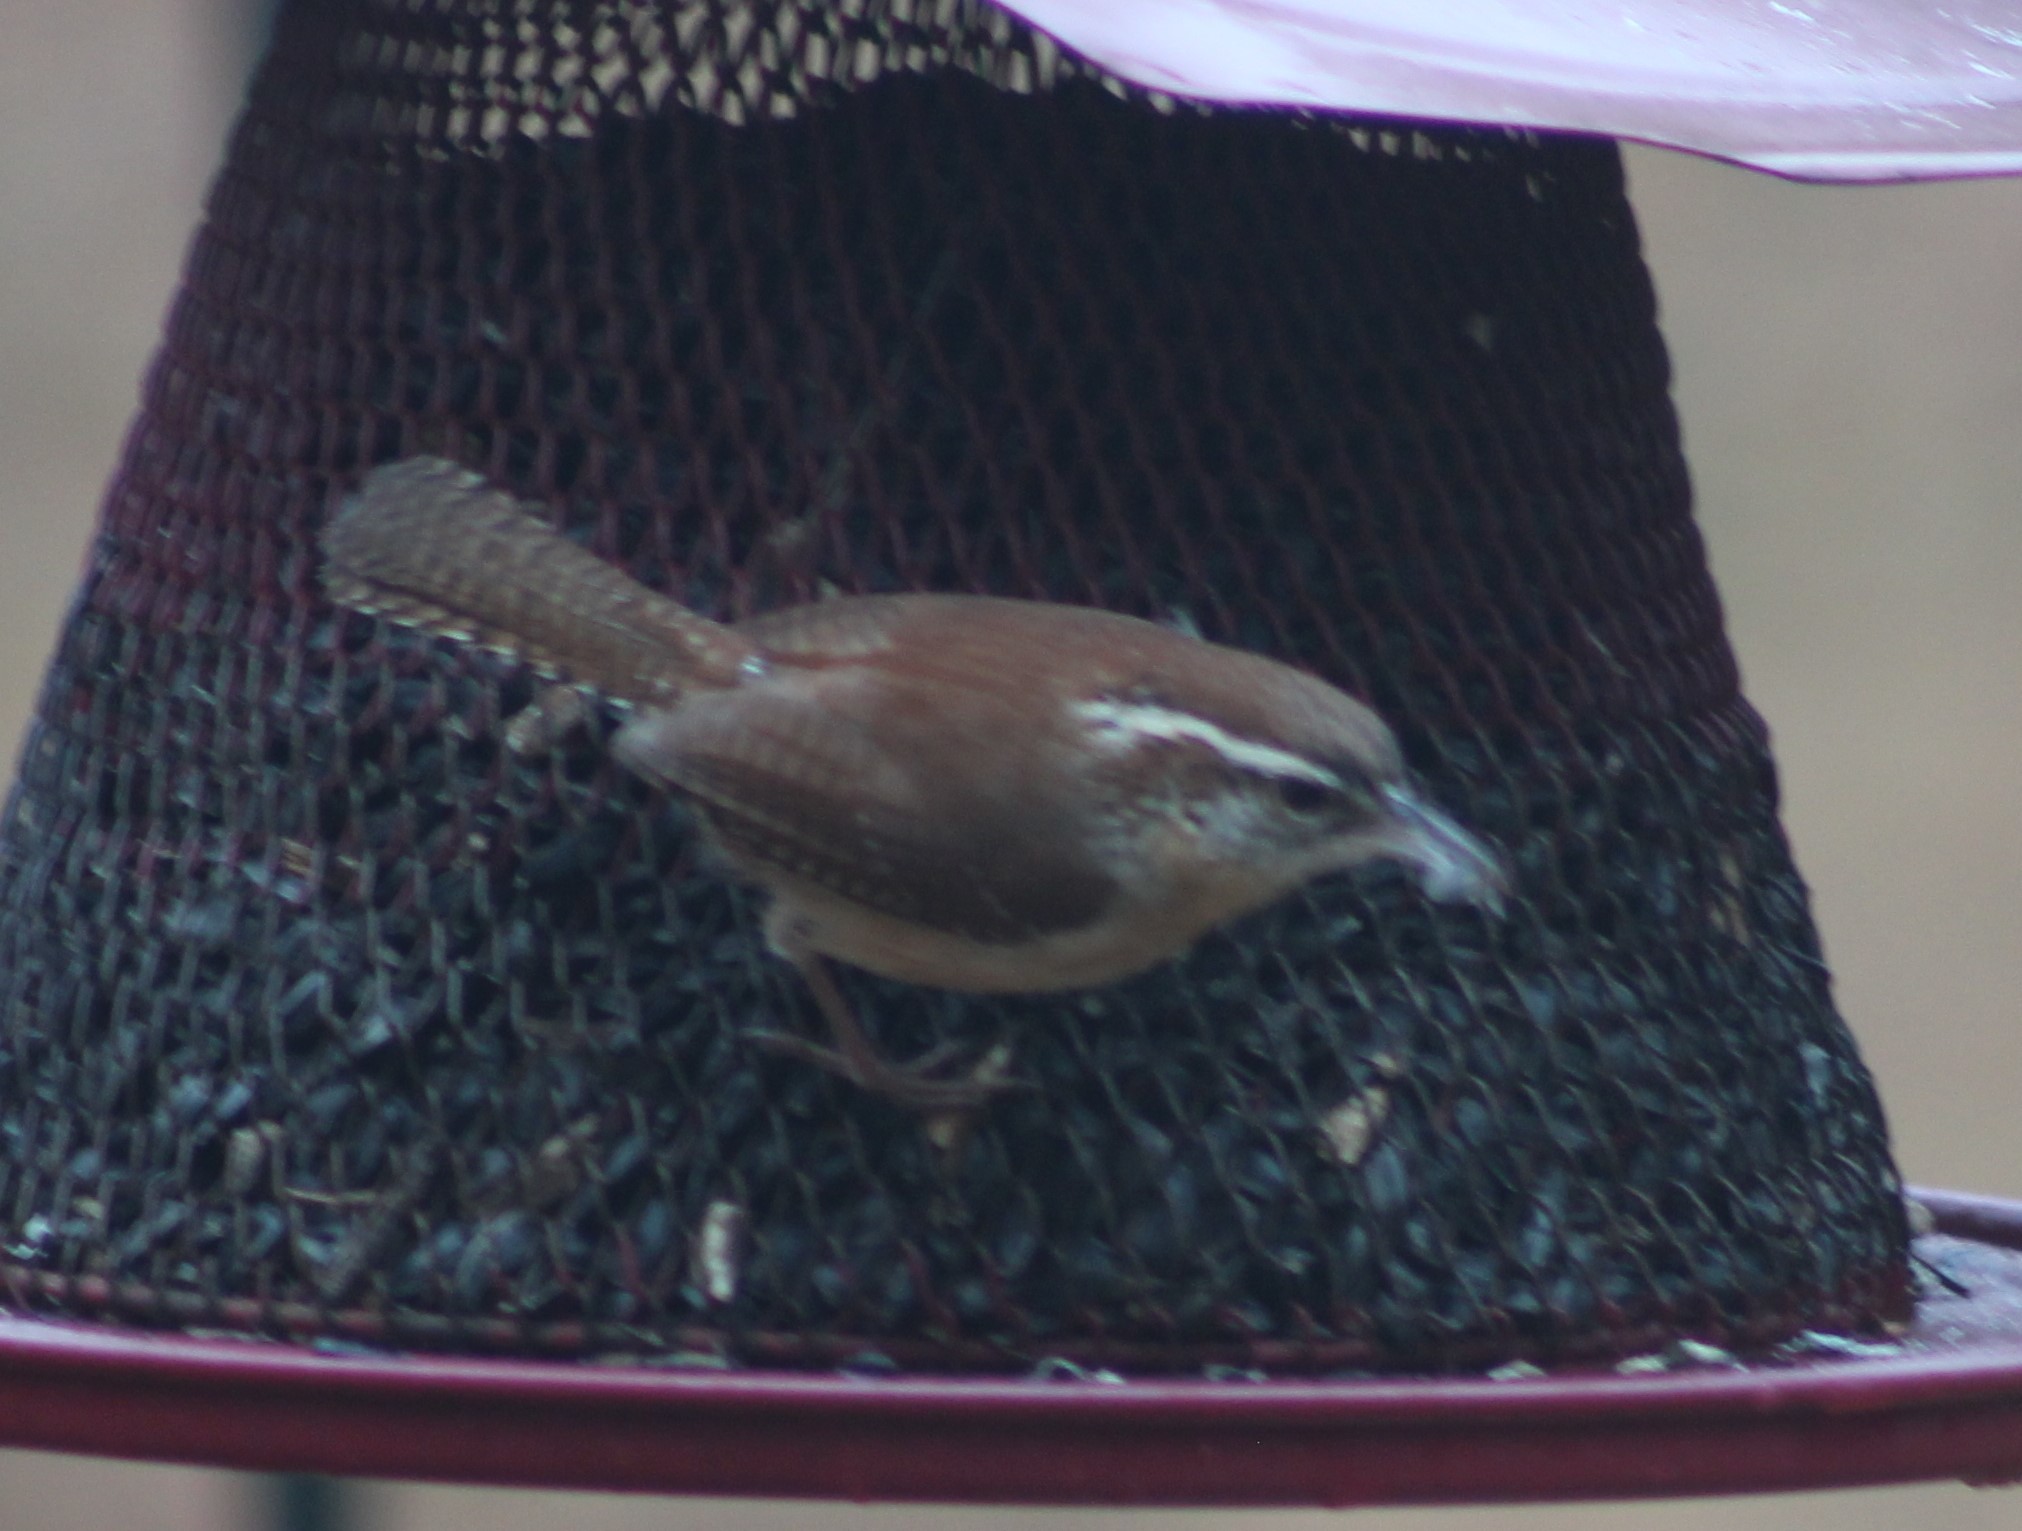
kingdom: Animalia
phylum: Chordata
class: Aves
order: Passeriformes
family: Troglodytidae
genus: Thryothorus
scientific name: Thryothorus ludovicianus
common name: Carolina wren
